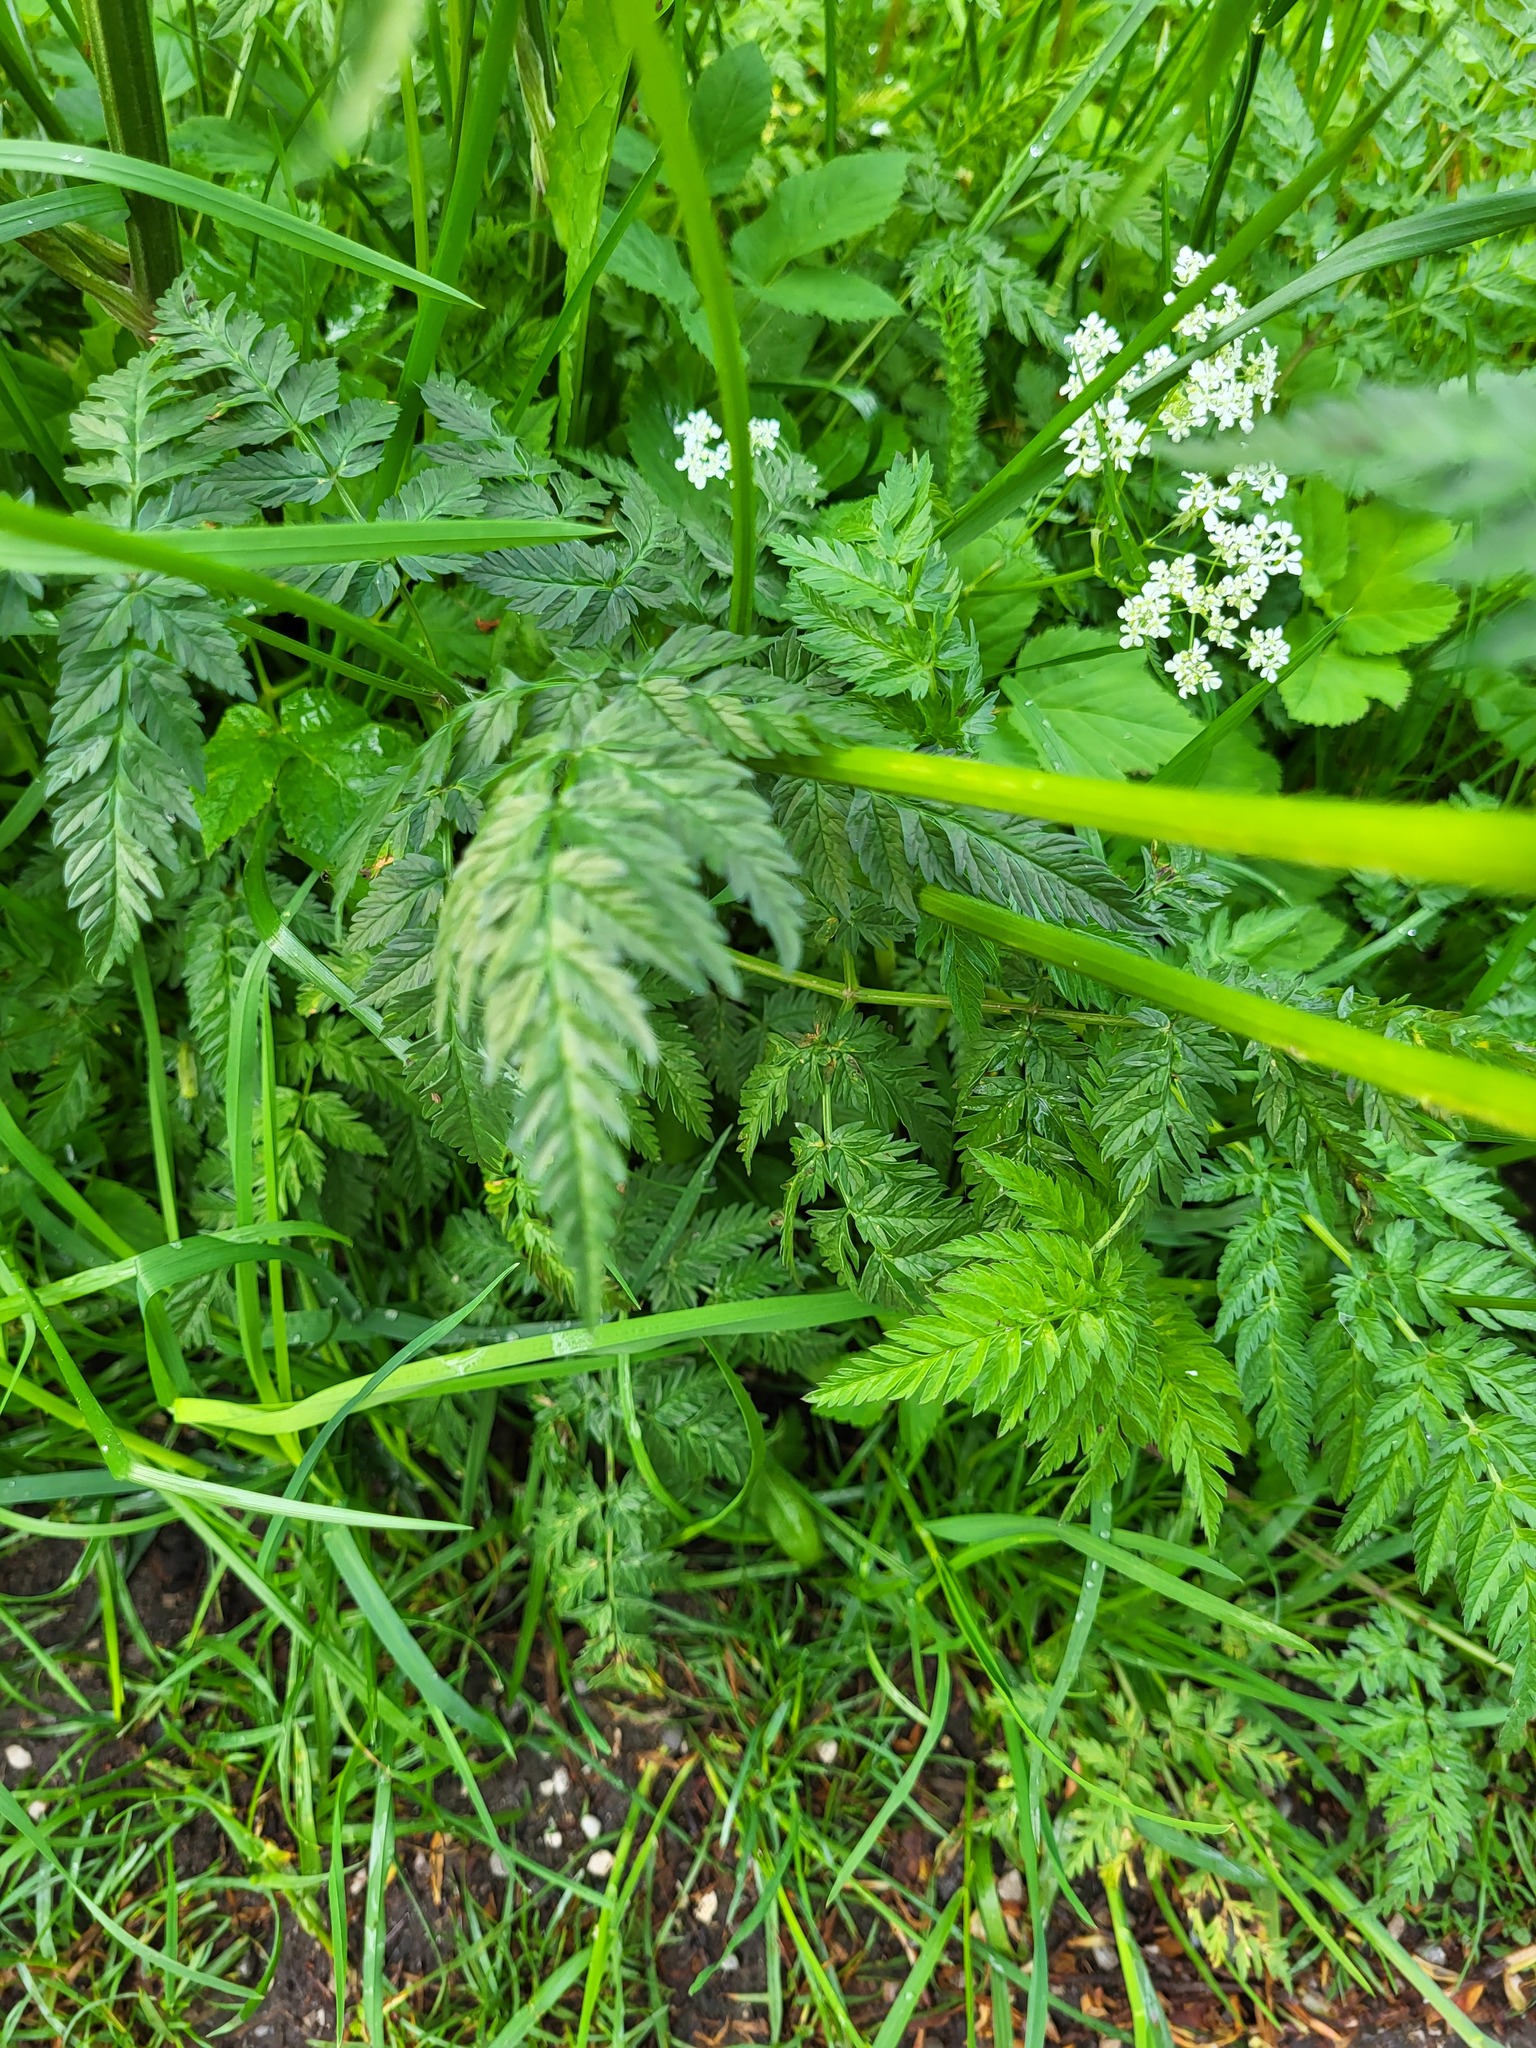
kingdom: Plantae
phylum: Tracheophyta
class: Magnoliopsida
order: Apiales
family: Apiaceae
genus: Anthriscus
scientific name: Anthriscus sylvestris
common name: Cow parsley
